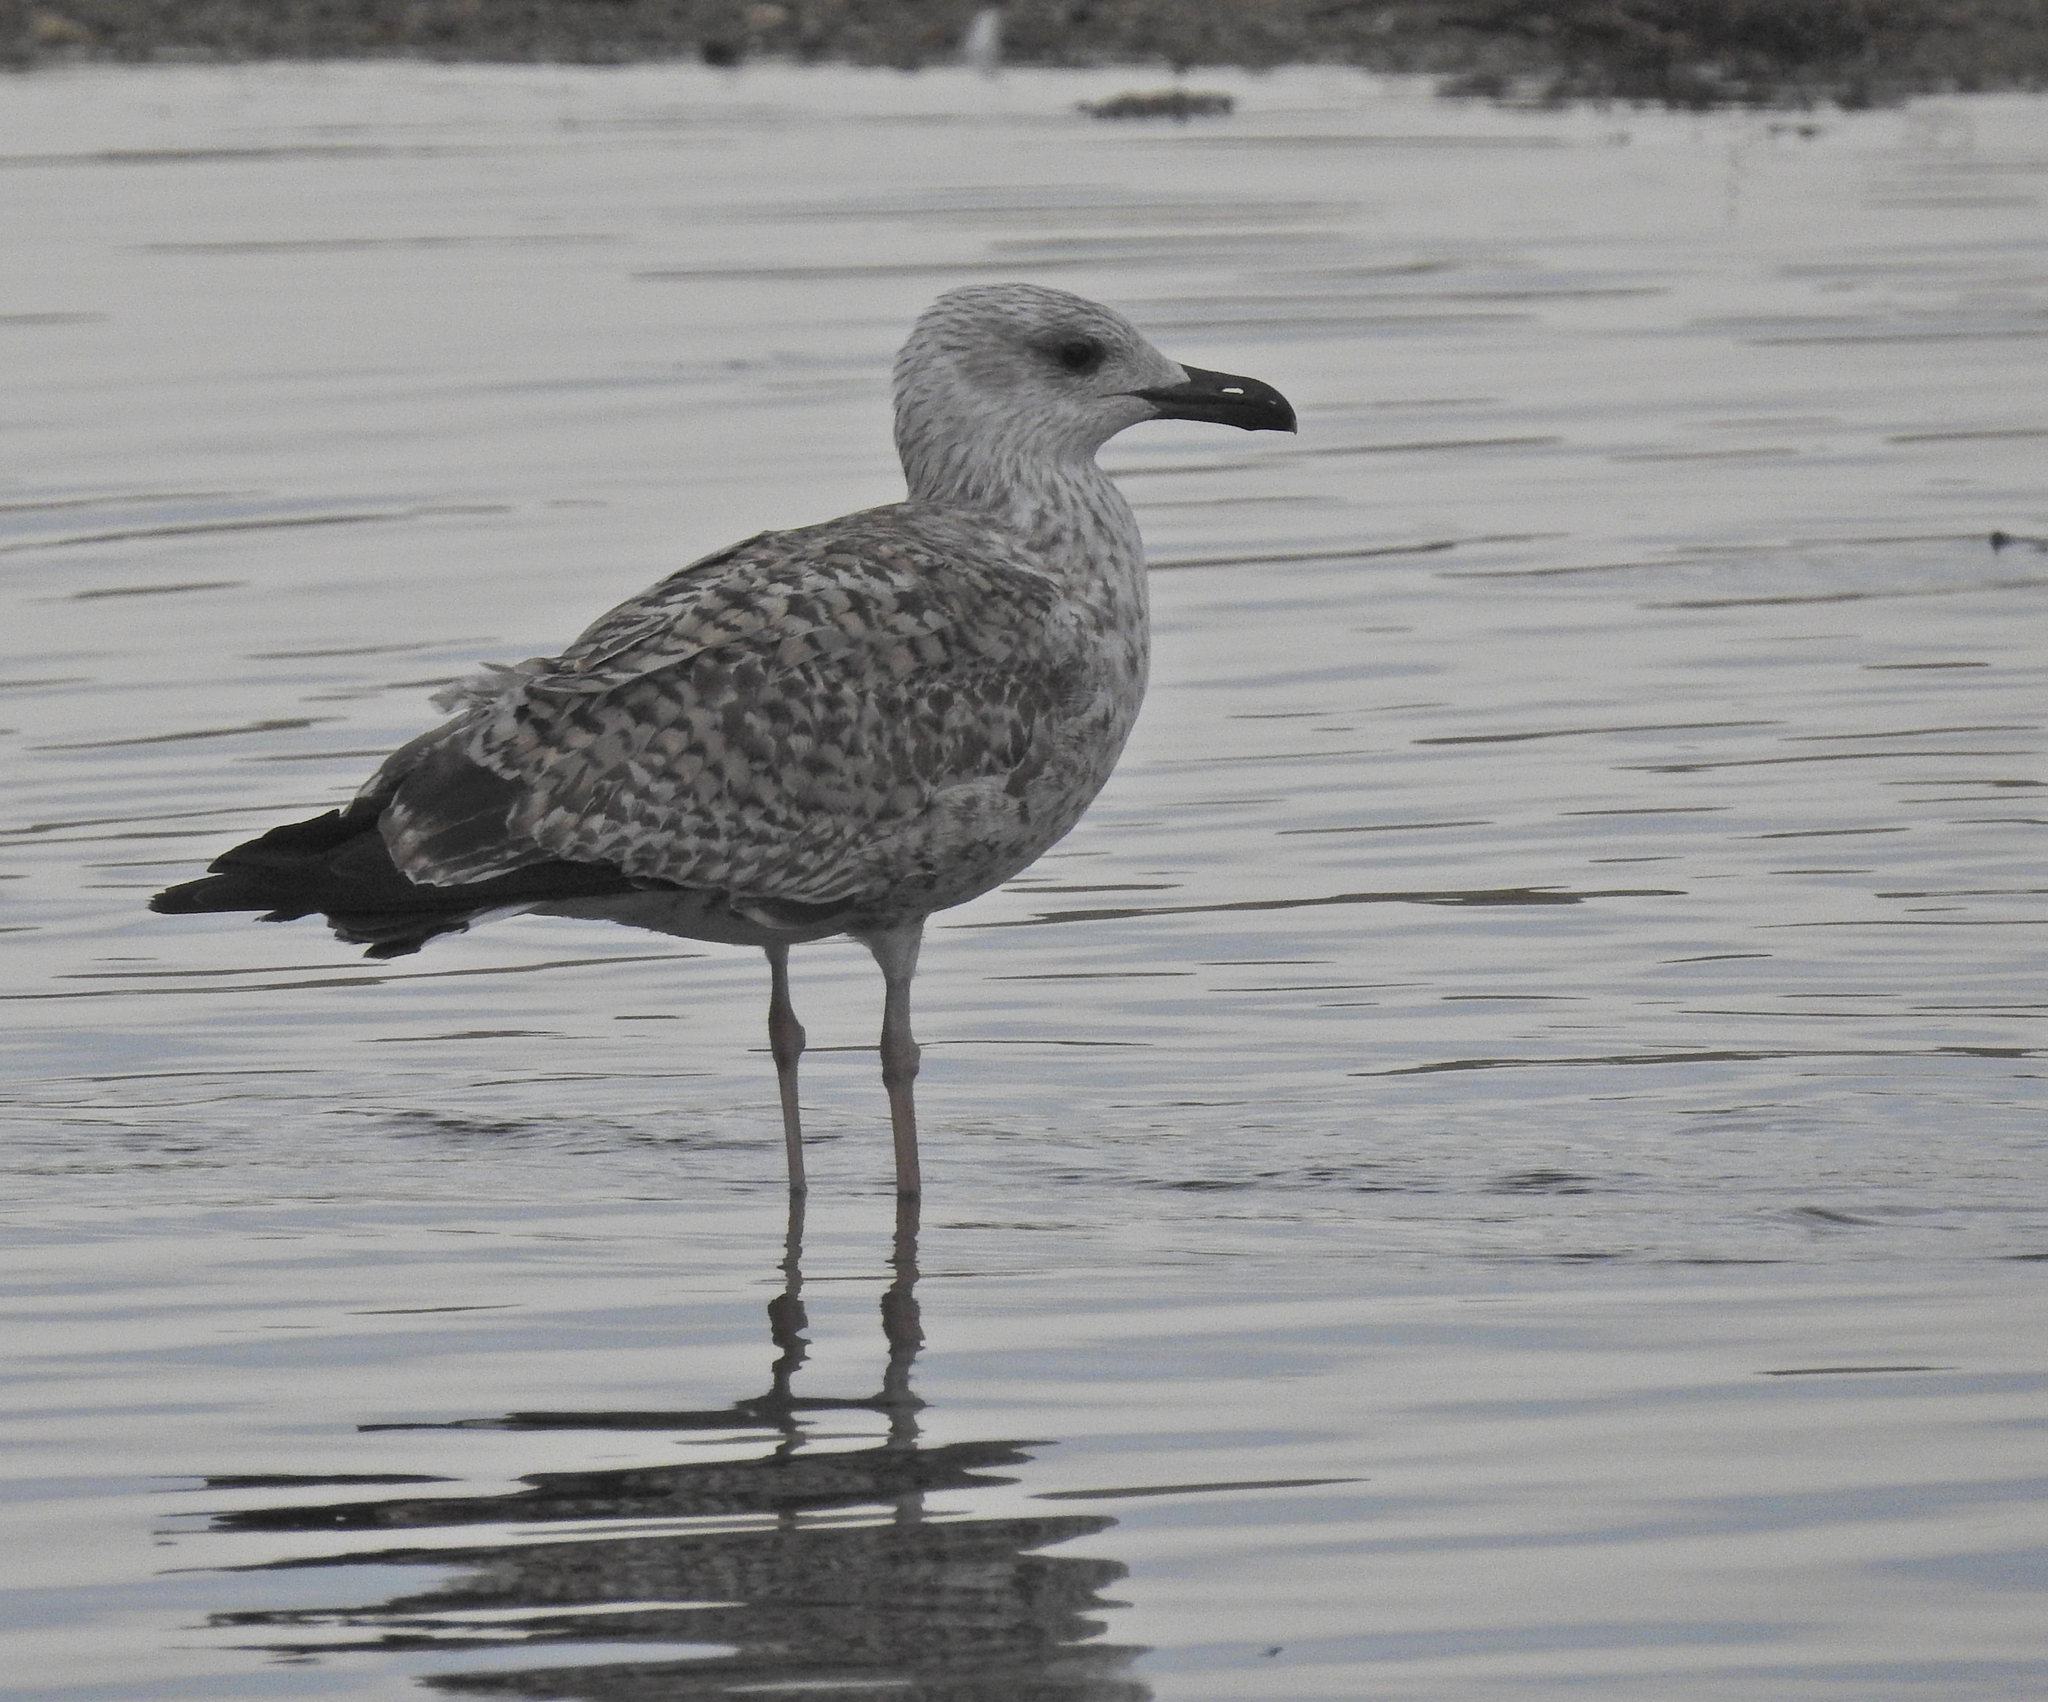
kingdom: Animalia
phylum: Chordata
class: Aves
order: Charadriiformes
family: Laridae
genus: Larus
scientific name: Larus michahellis
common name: Yellow-legged gull
